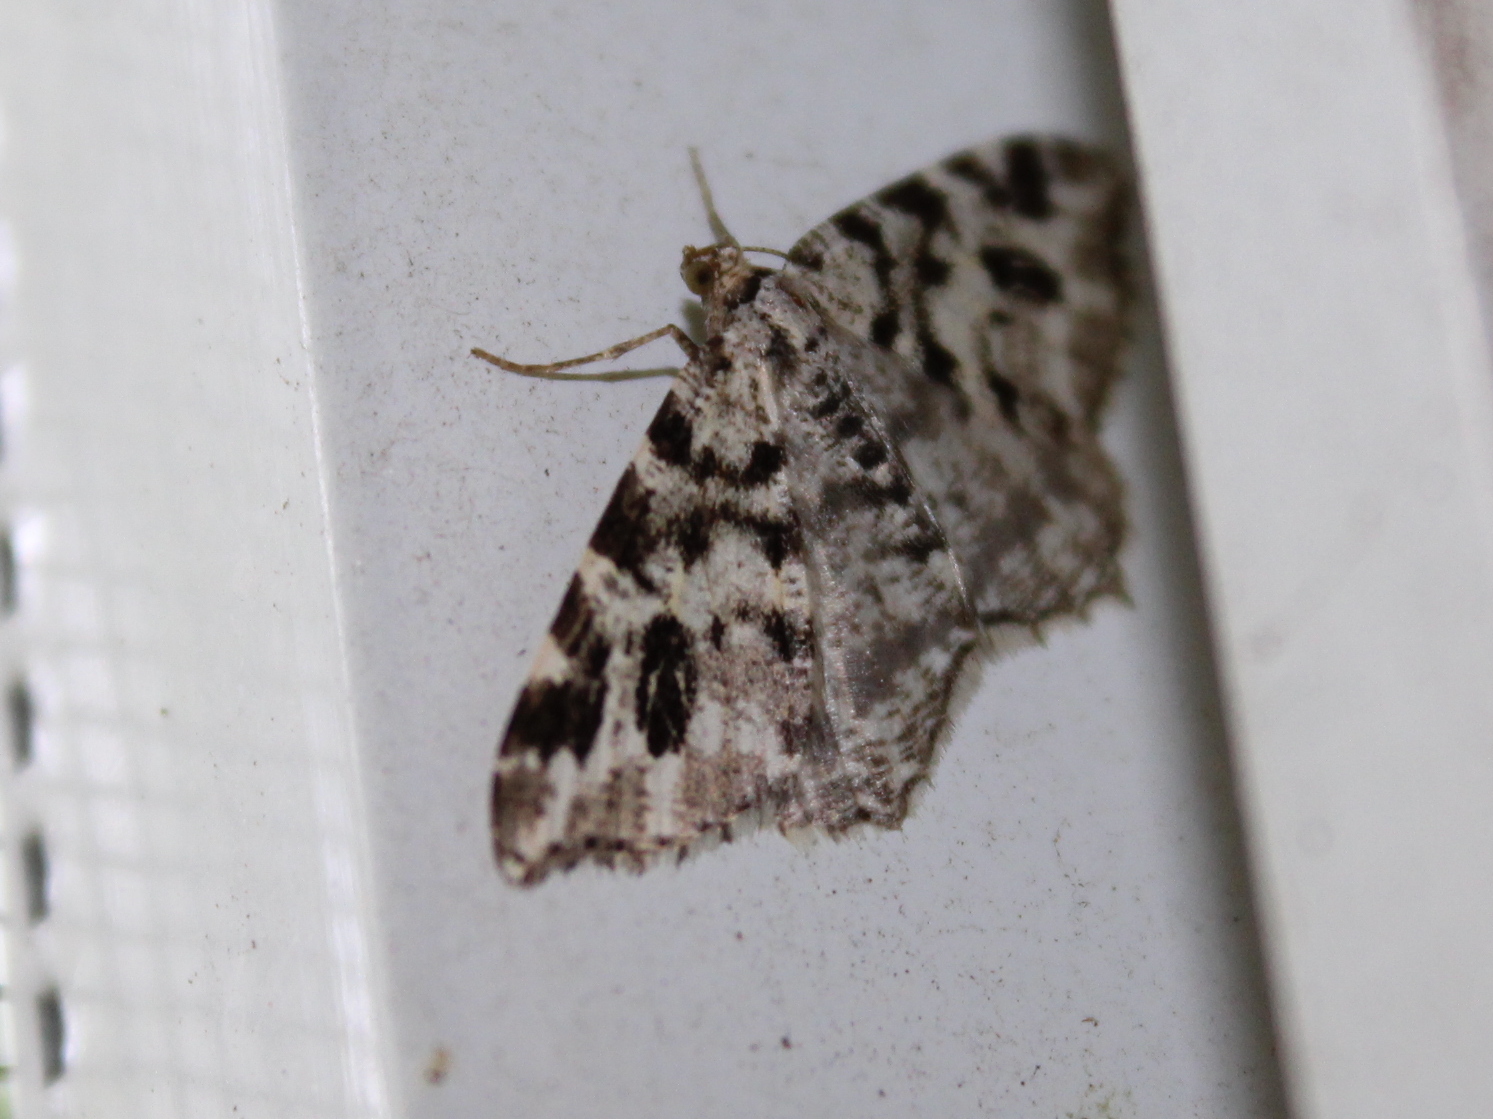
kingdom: Animalia
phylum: Arthropoda
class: Insecta
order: Lepidoptera
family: Geometridae
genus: Macaria
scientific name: Macaria oweni
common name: Owen's angle
